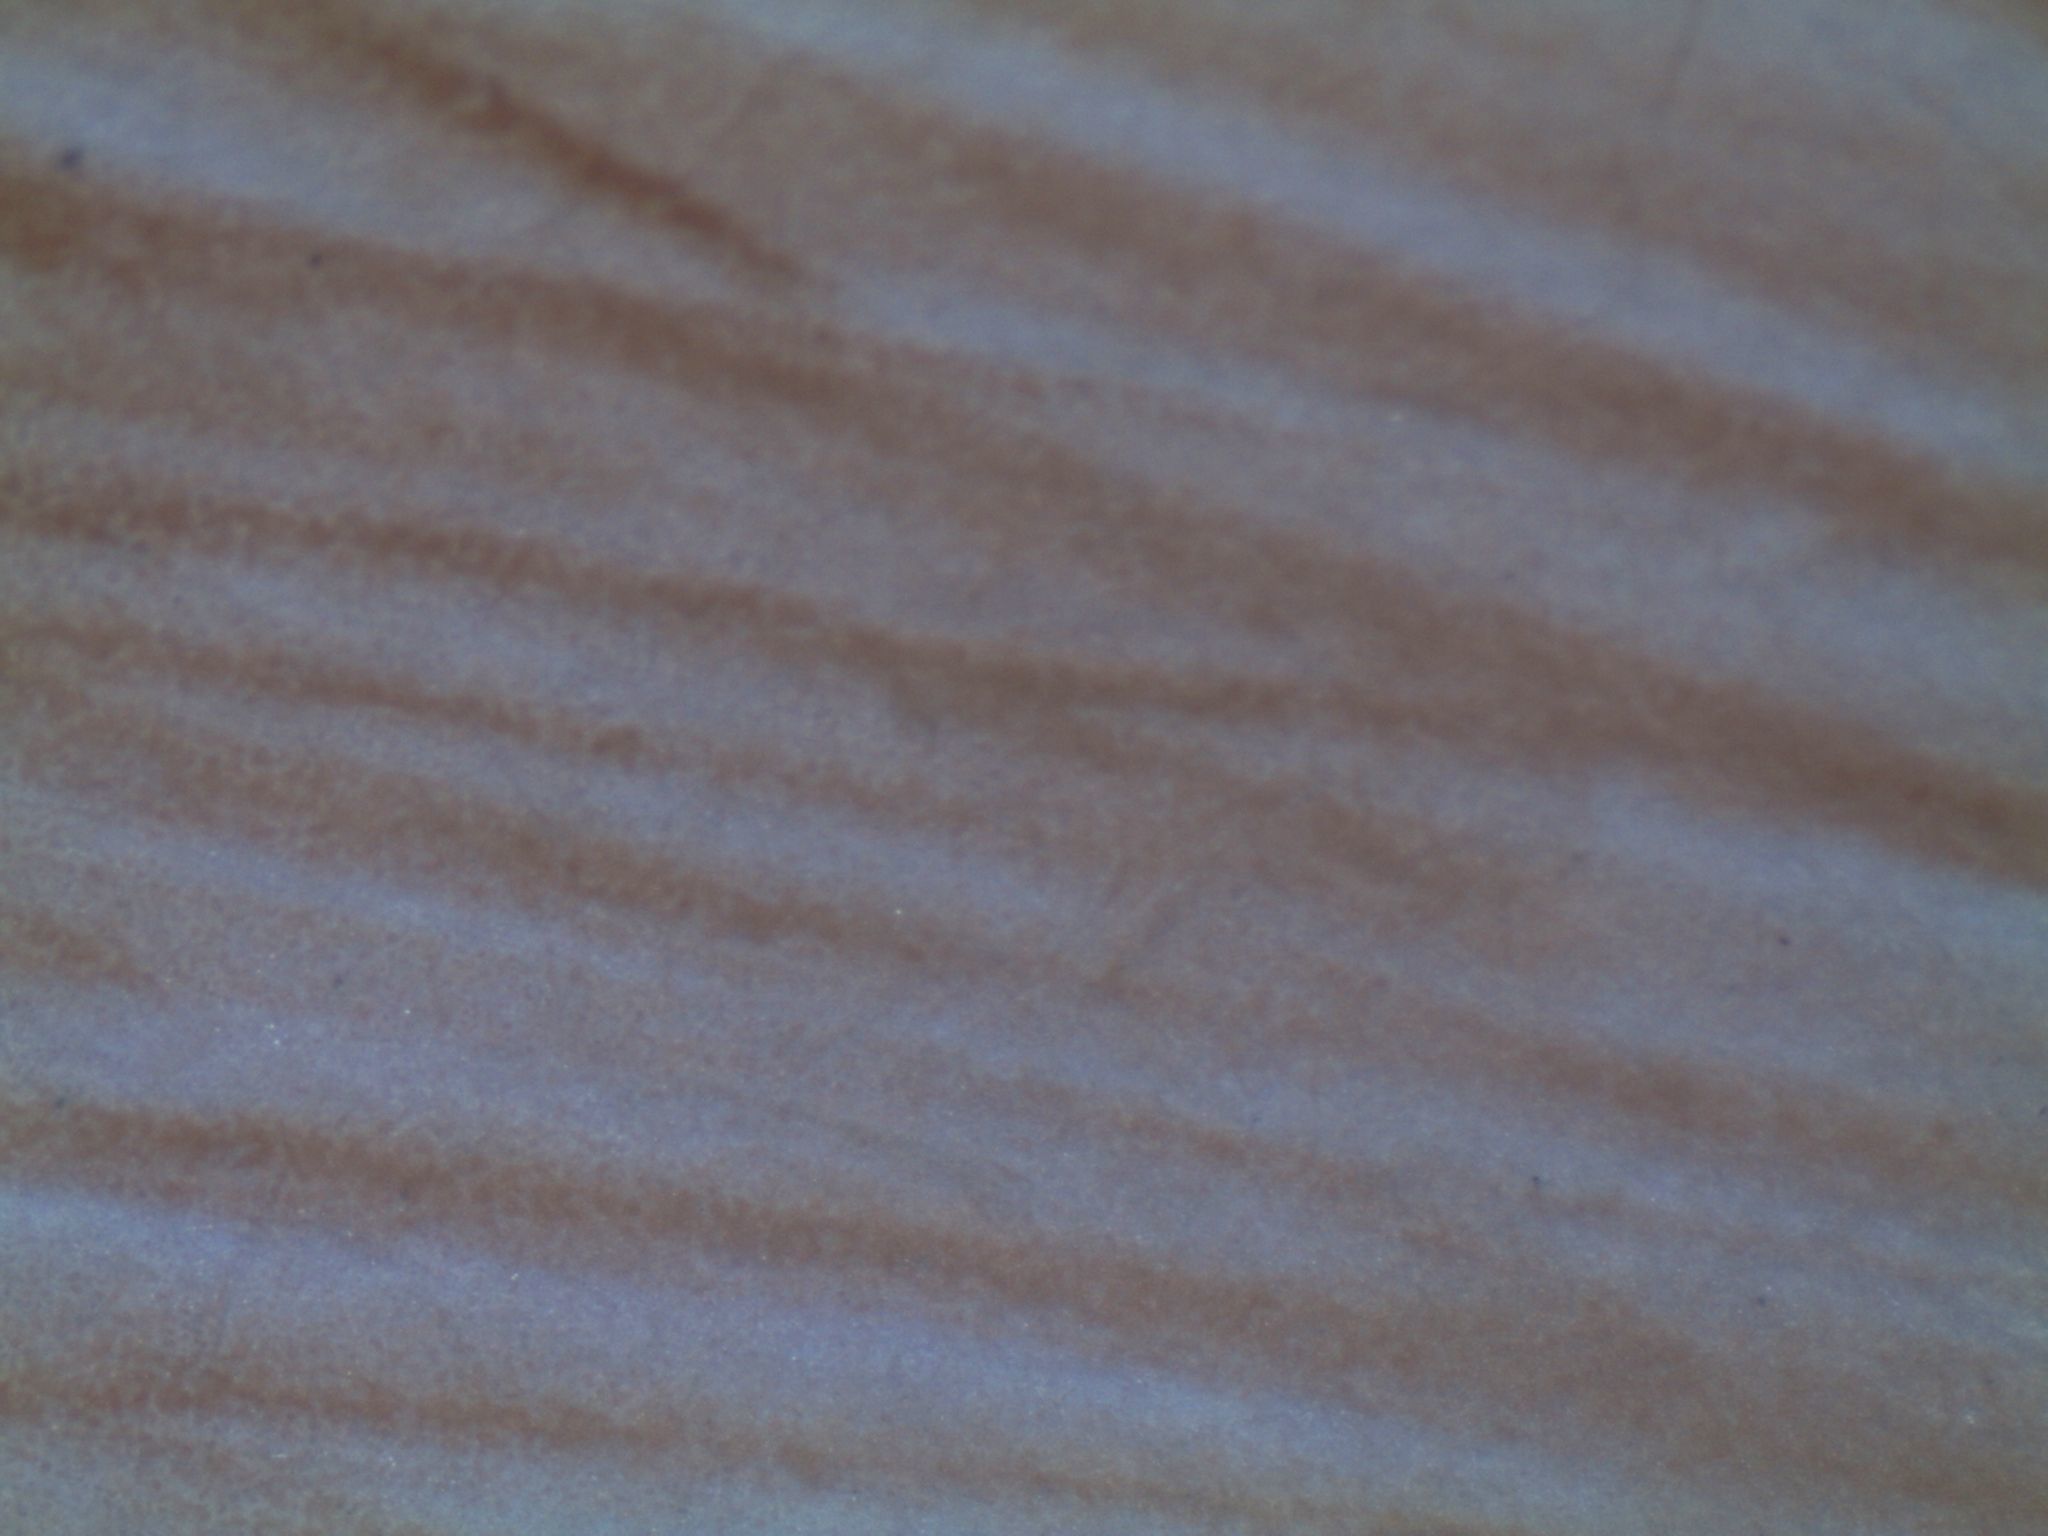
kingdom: Fungi
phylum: Basidiomycota
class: Agaricomycetes
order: Agaricales
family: Bolbitiaceae
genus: Bolbitius
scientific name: Bolbitius muscicola
